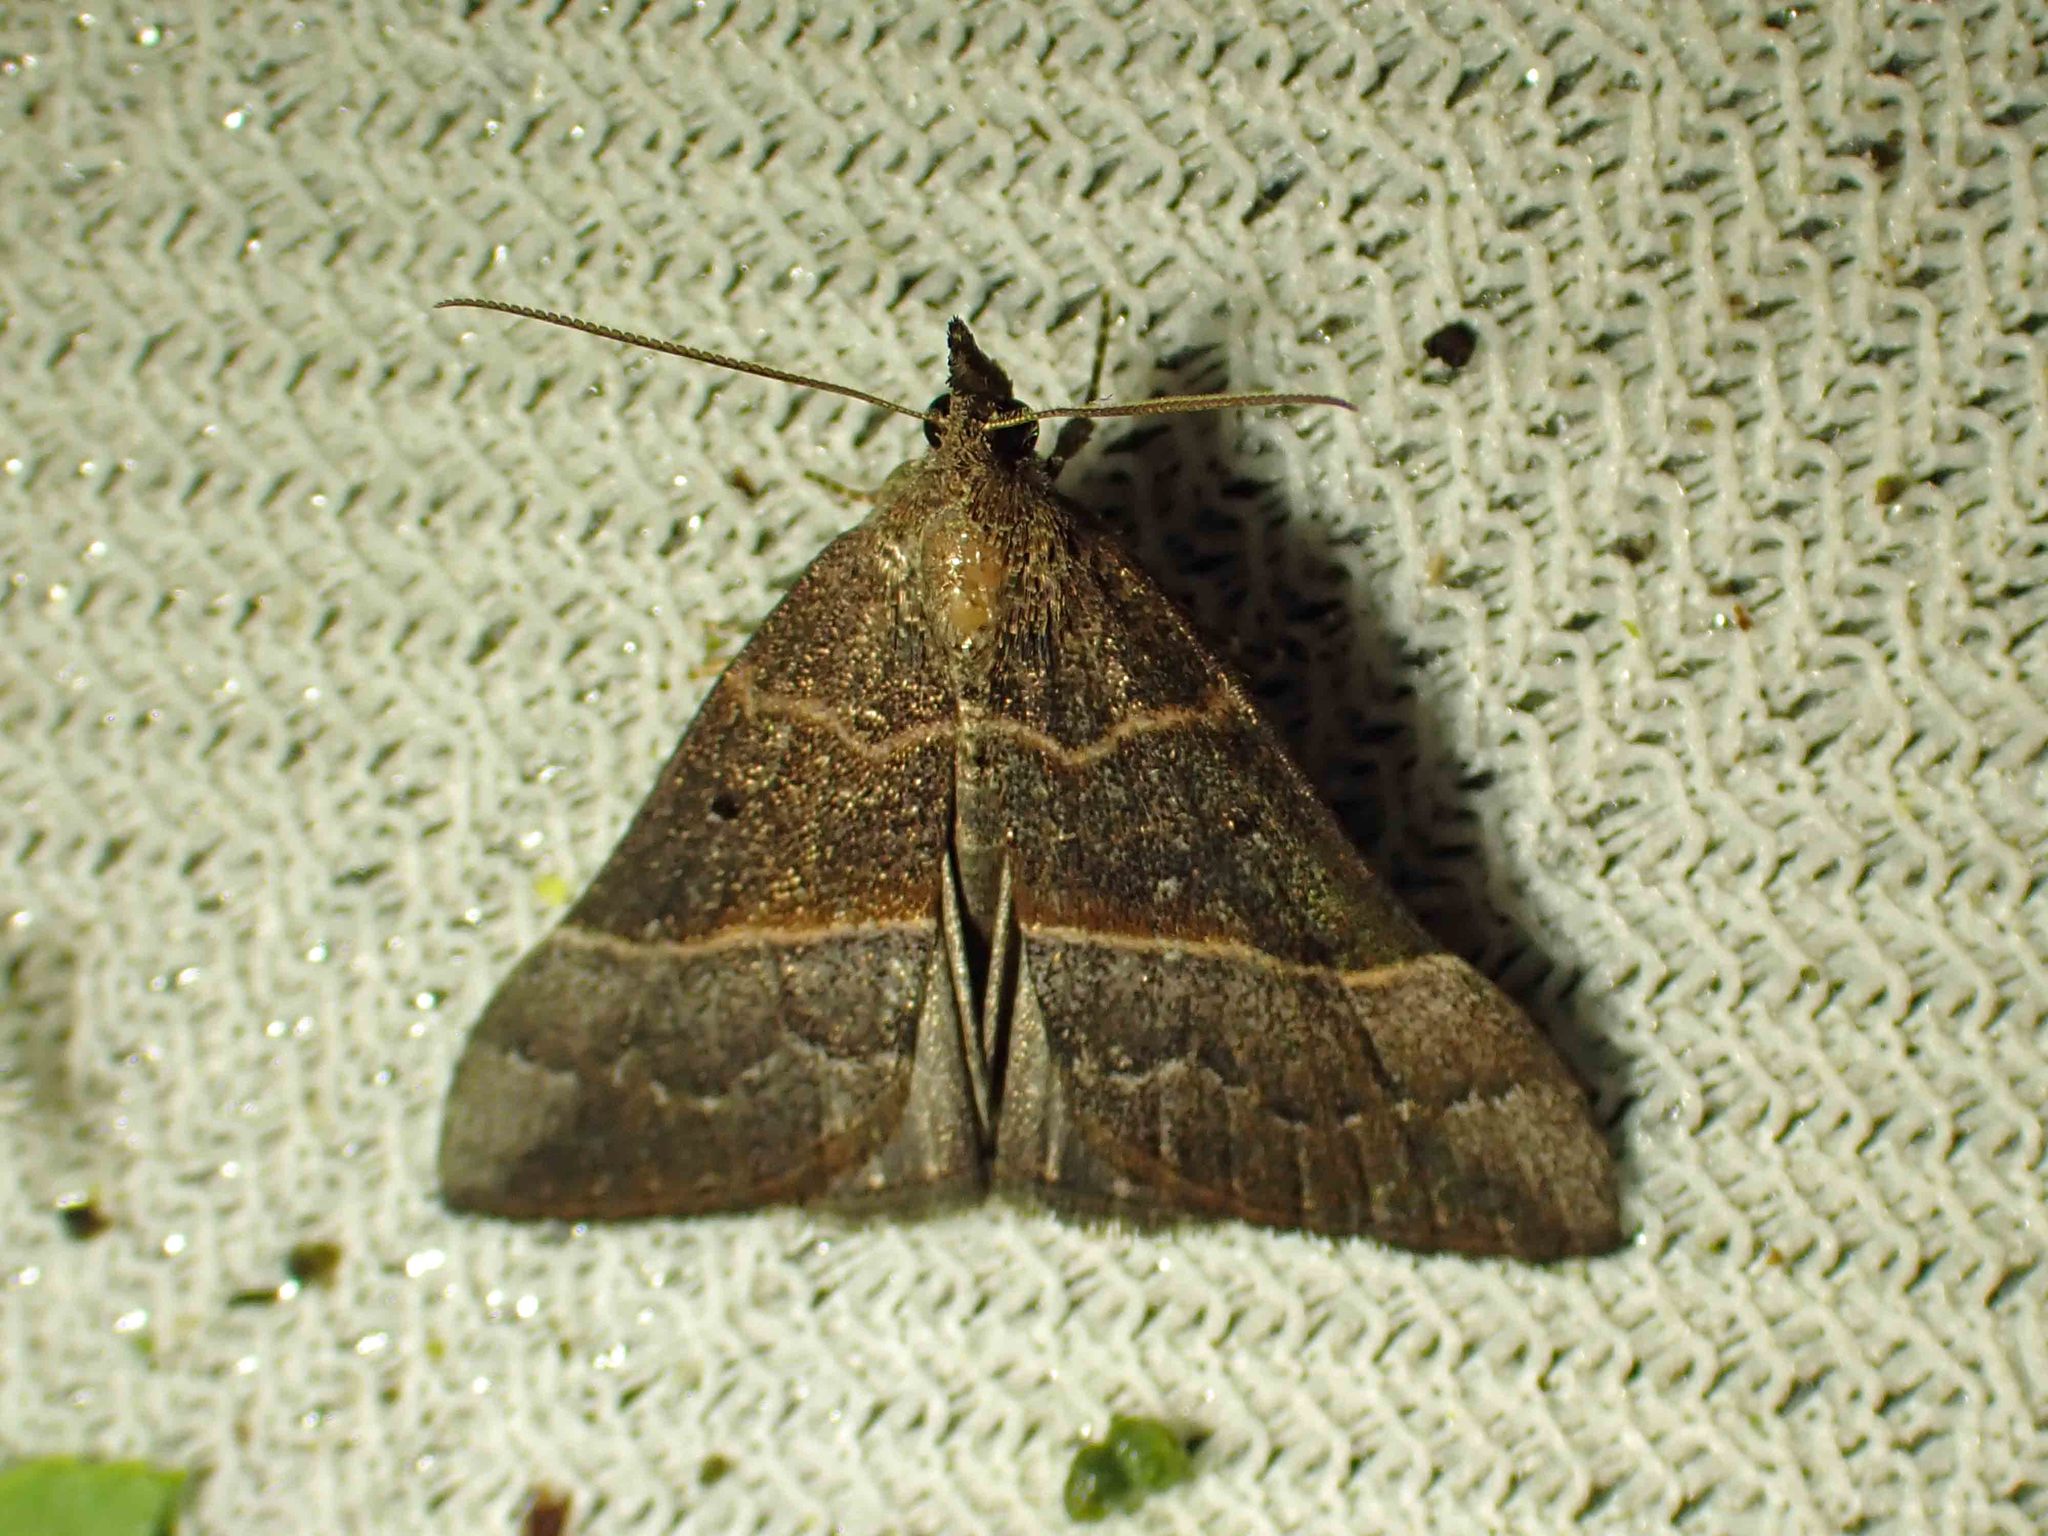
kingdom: Animalia
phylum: Arthropoda
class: Insecta
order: Lepidoptera
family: Erebidae
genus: Hypena
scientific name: Hypena eductalis
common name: Red-footed snout
